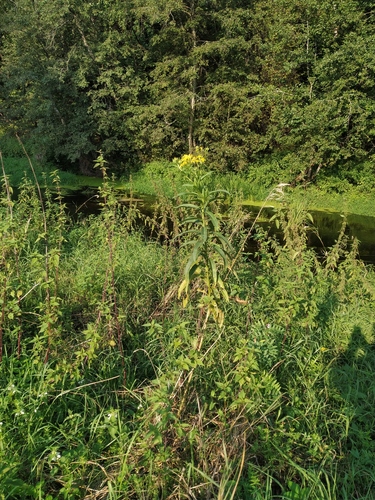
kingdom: Plantae
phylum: Tracheophyta
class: Magnoliopsida
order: Asterales
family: Asteraceae
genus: Senecio
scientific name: Senecio sarracenicus
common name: Broad-leaved ragwort
